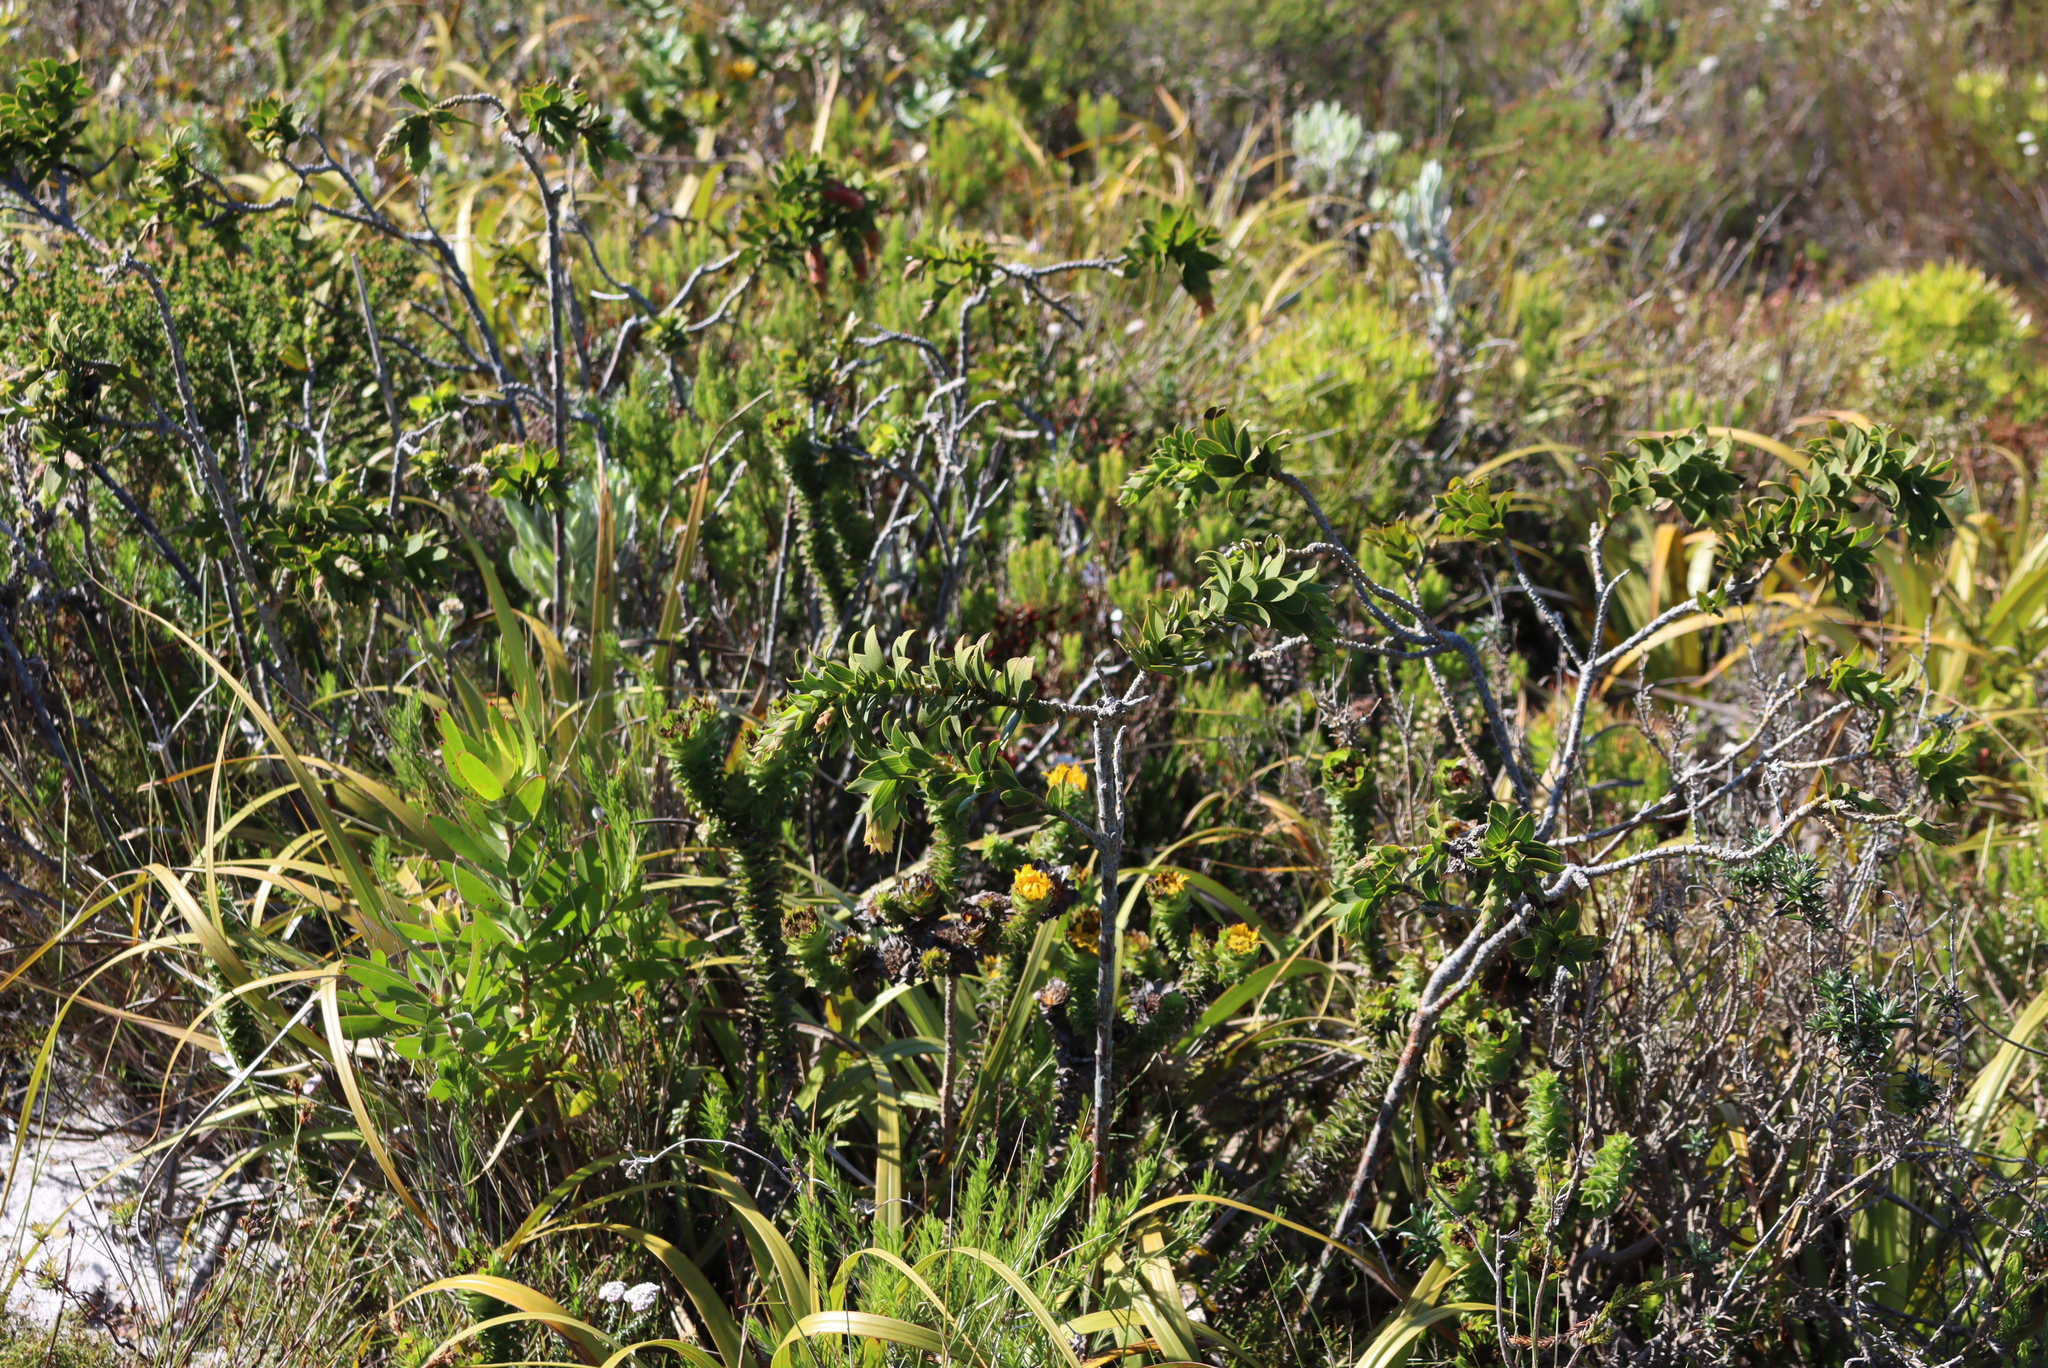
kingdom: Plantae
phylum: Tracheophyta
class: Magnoliopsida
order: Fabales
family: Fabaceae
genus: Liparia
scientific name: Liparia splendens
